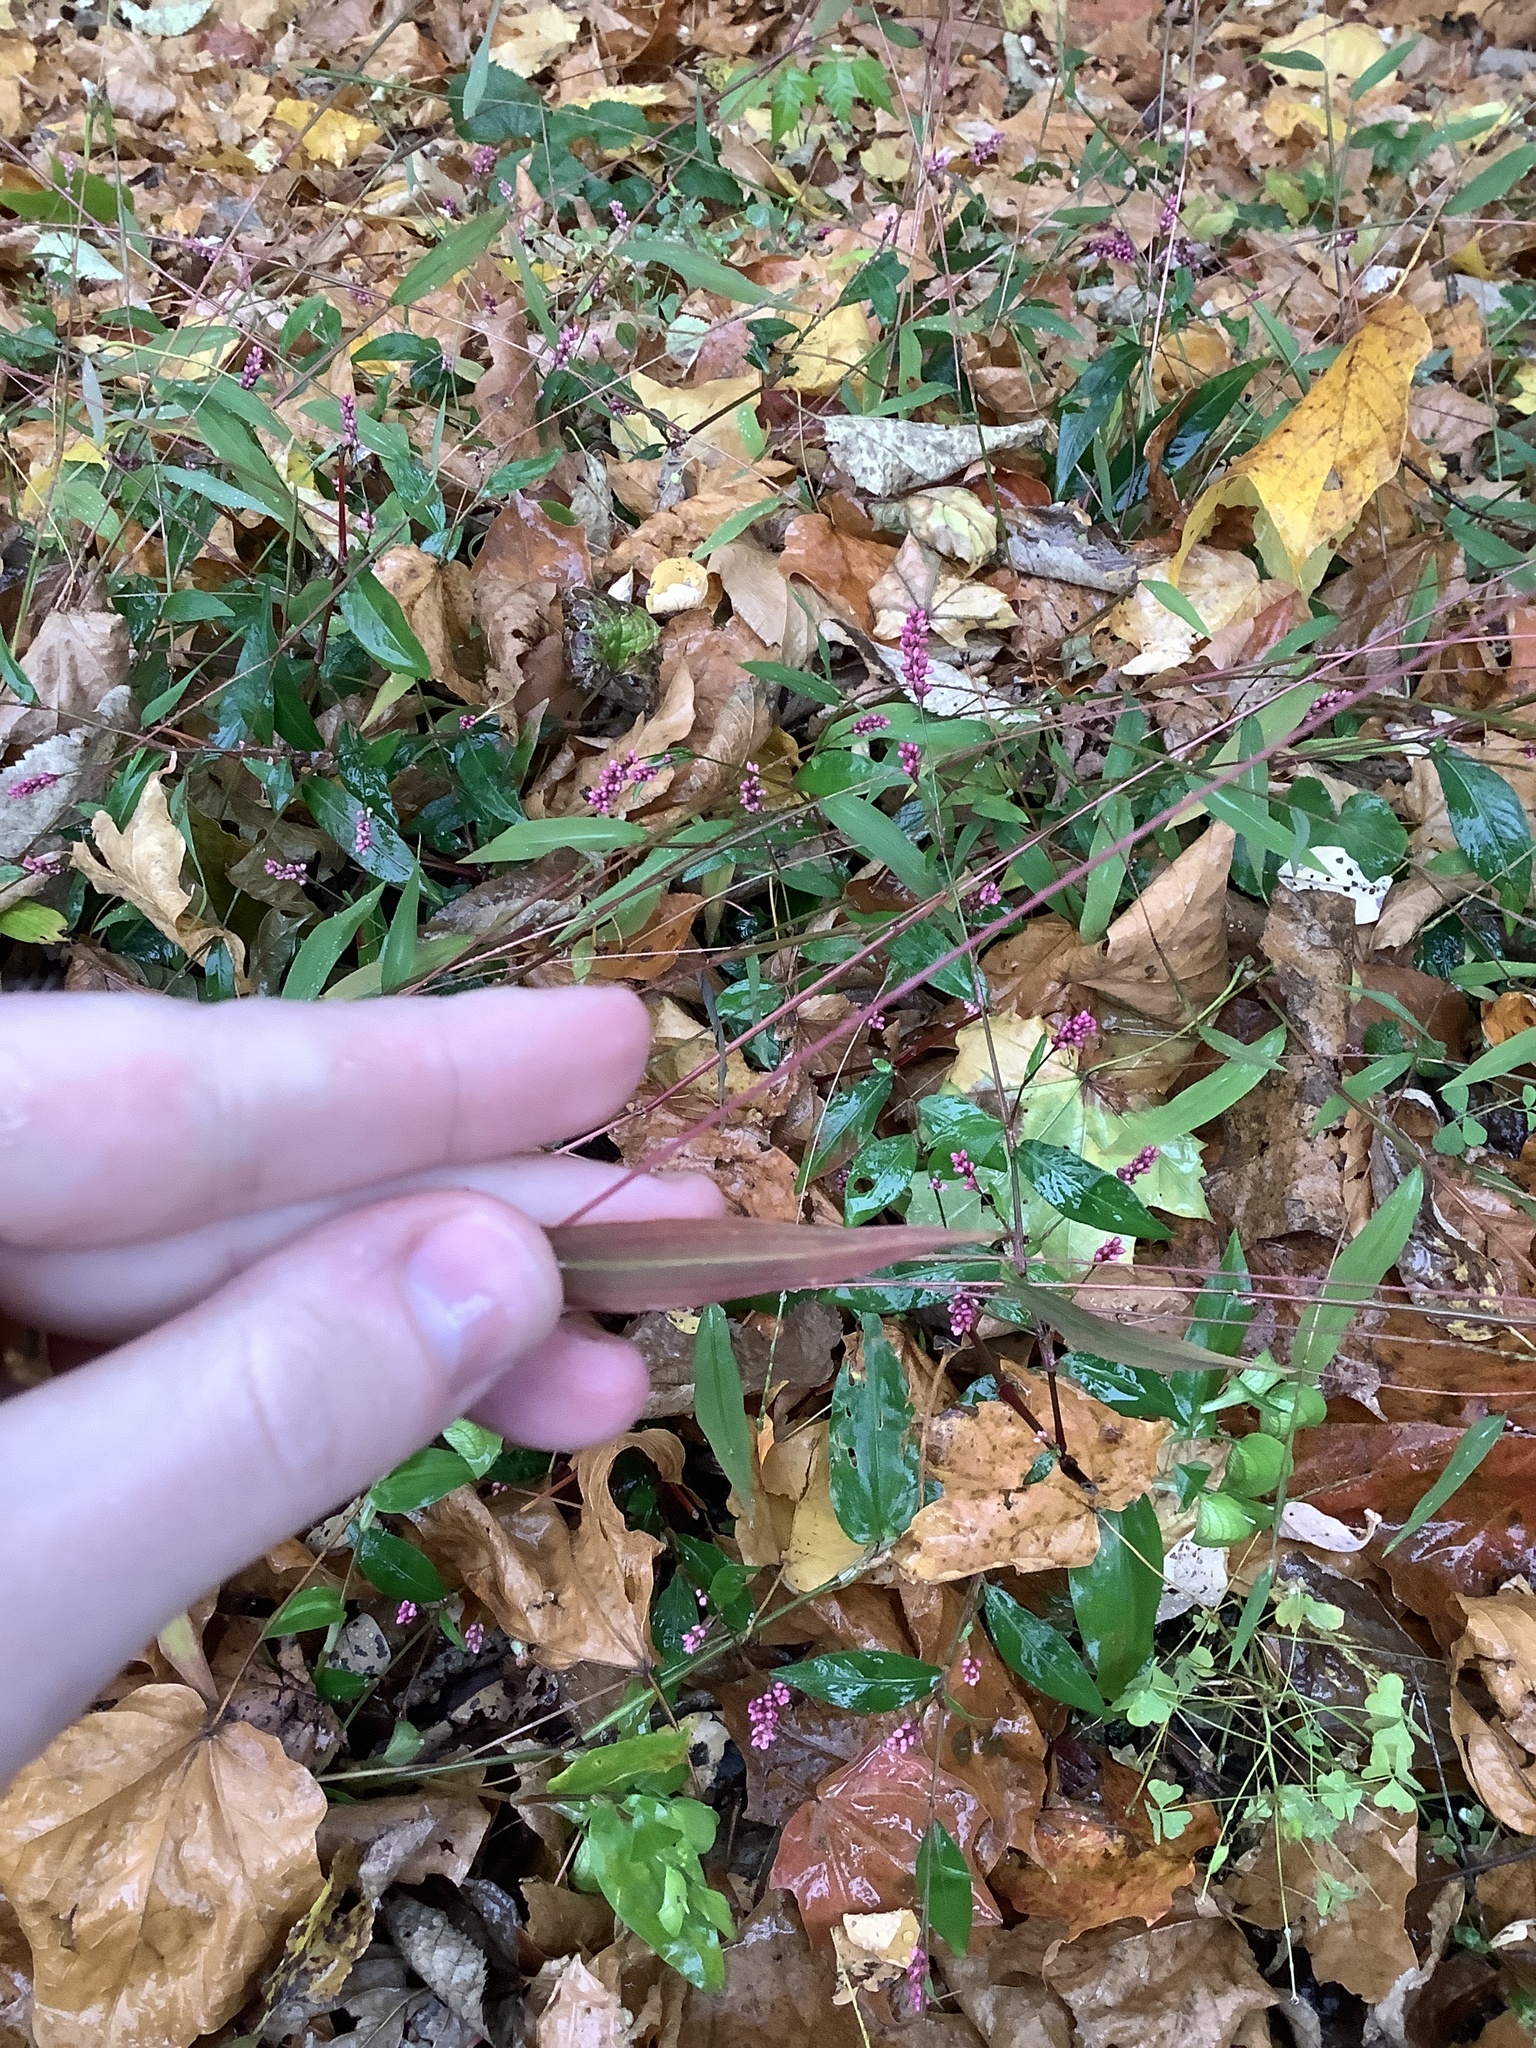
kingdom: Plantae
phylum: Tracheophyta
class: Liliopsida
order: Poales
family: Poaceae
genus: Microstegium
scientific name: Microstegium vimineum
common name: Japanese stiltgrass
